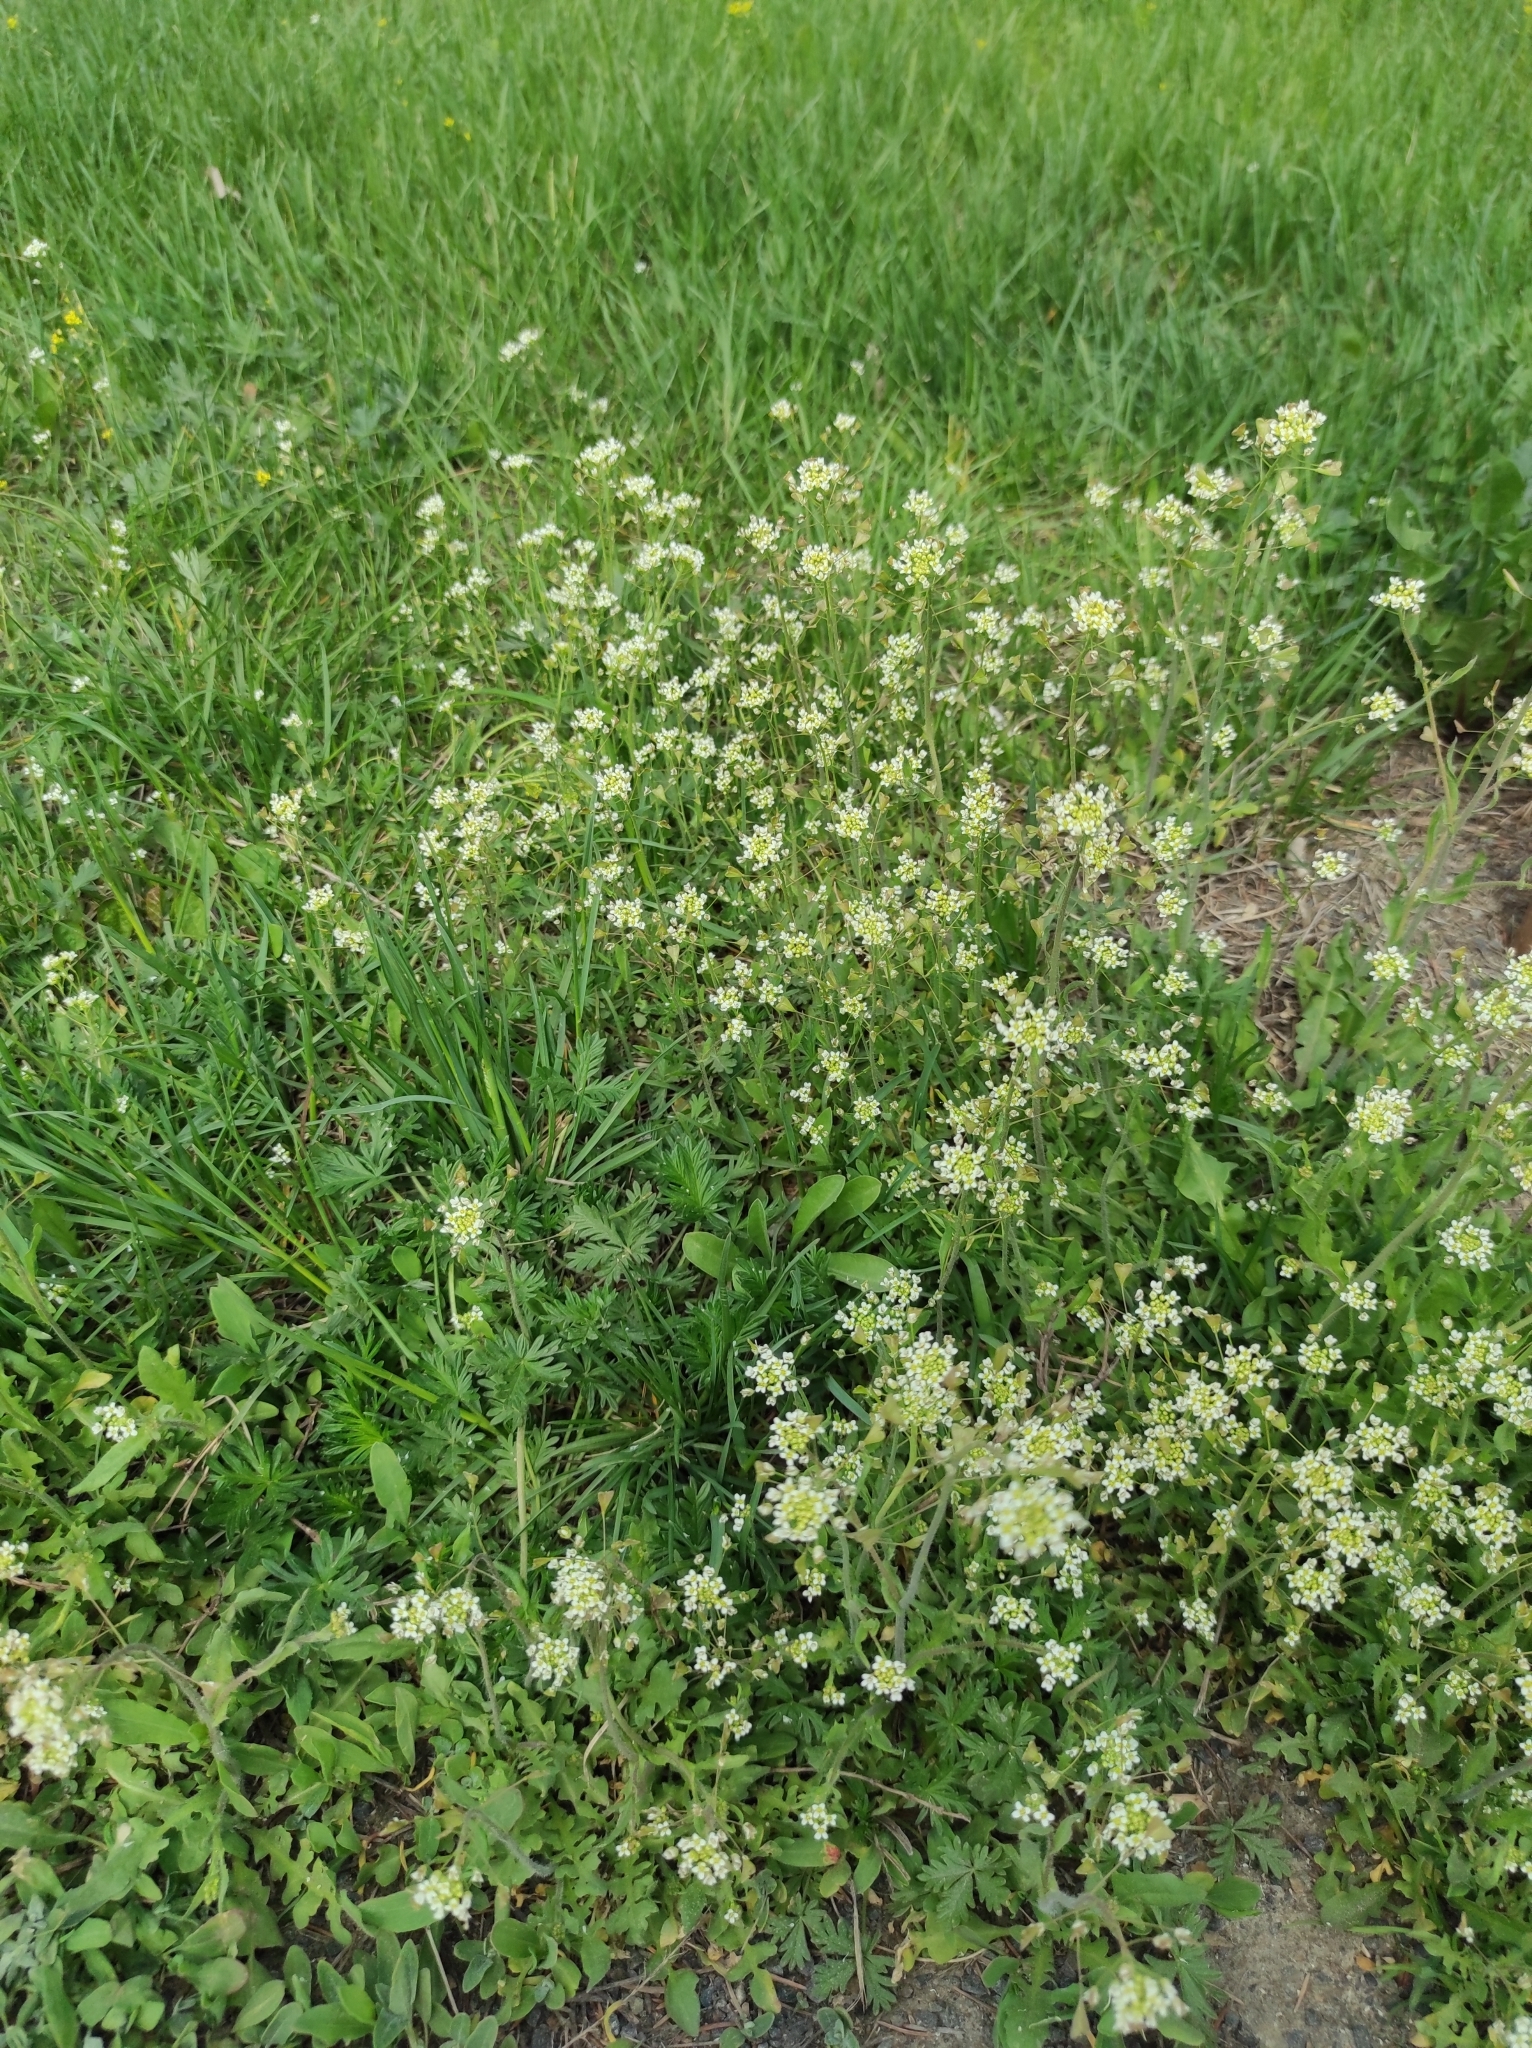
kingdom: Plantae
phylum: Tracheophyta
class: Magnoliopsida
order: Brassicales
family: Brassicaceae
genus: Capsella
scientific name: Capsella bursa-pastoris
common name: Shepherd's purse
